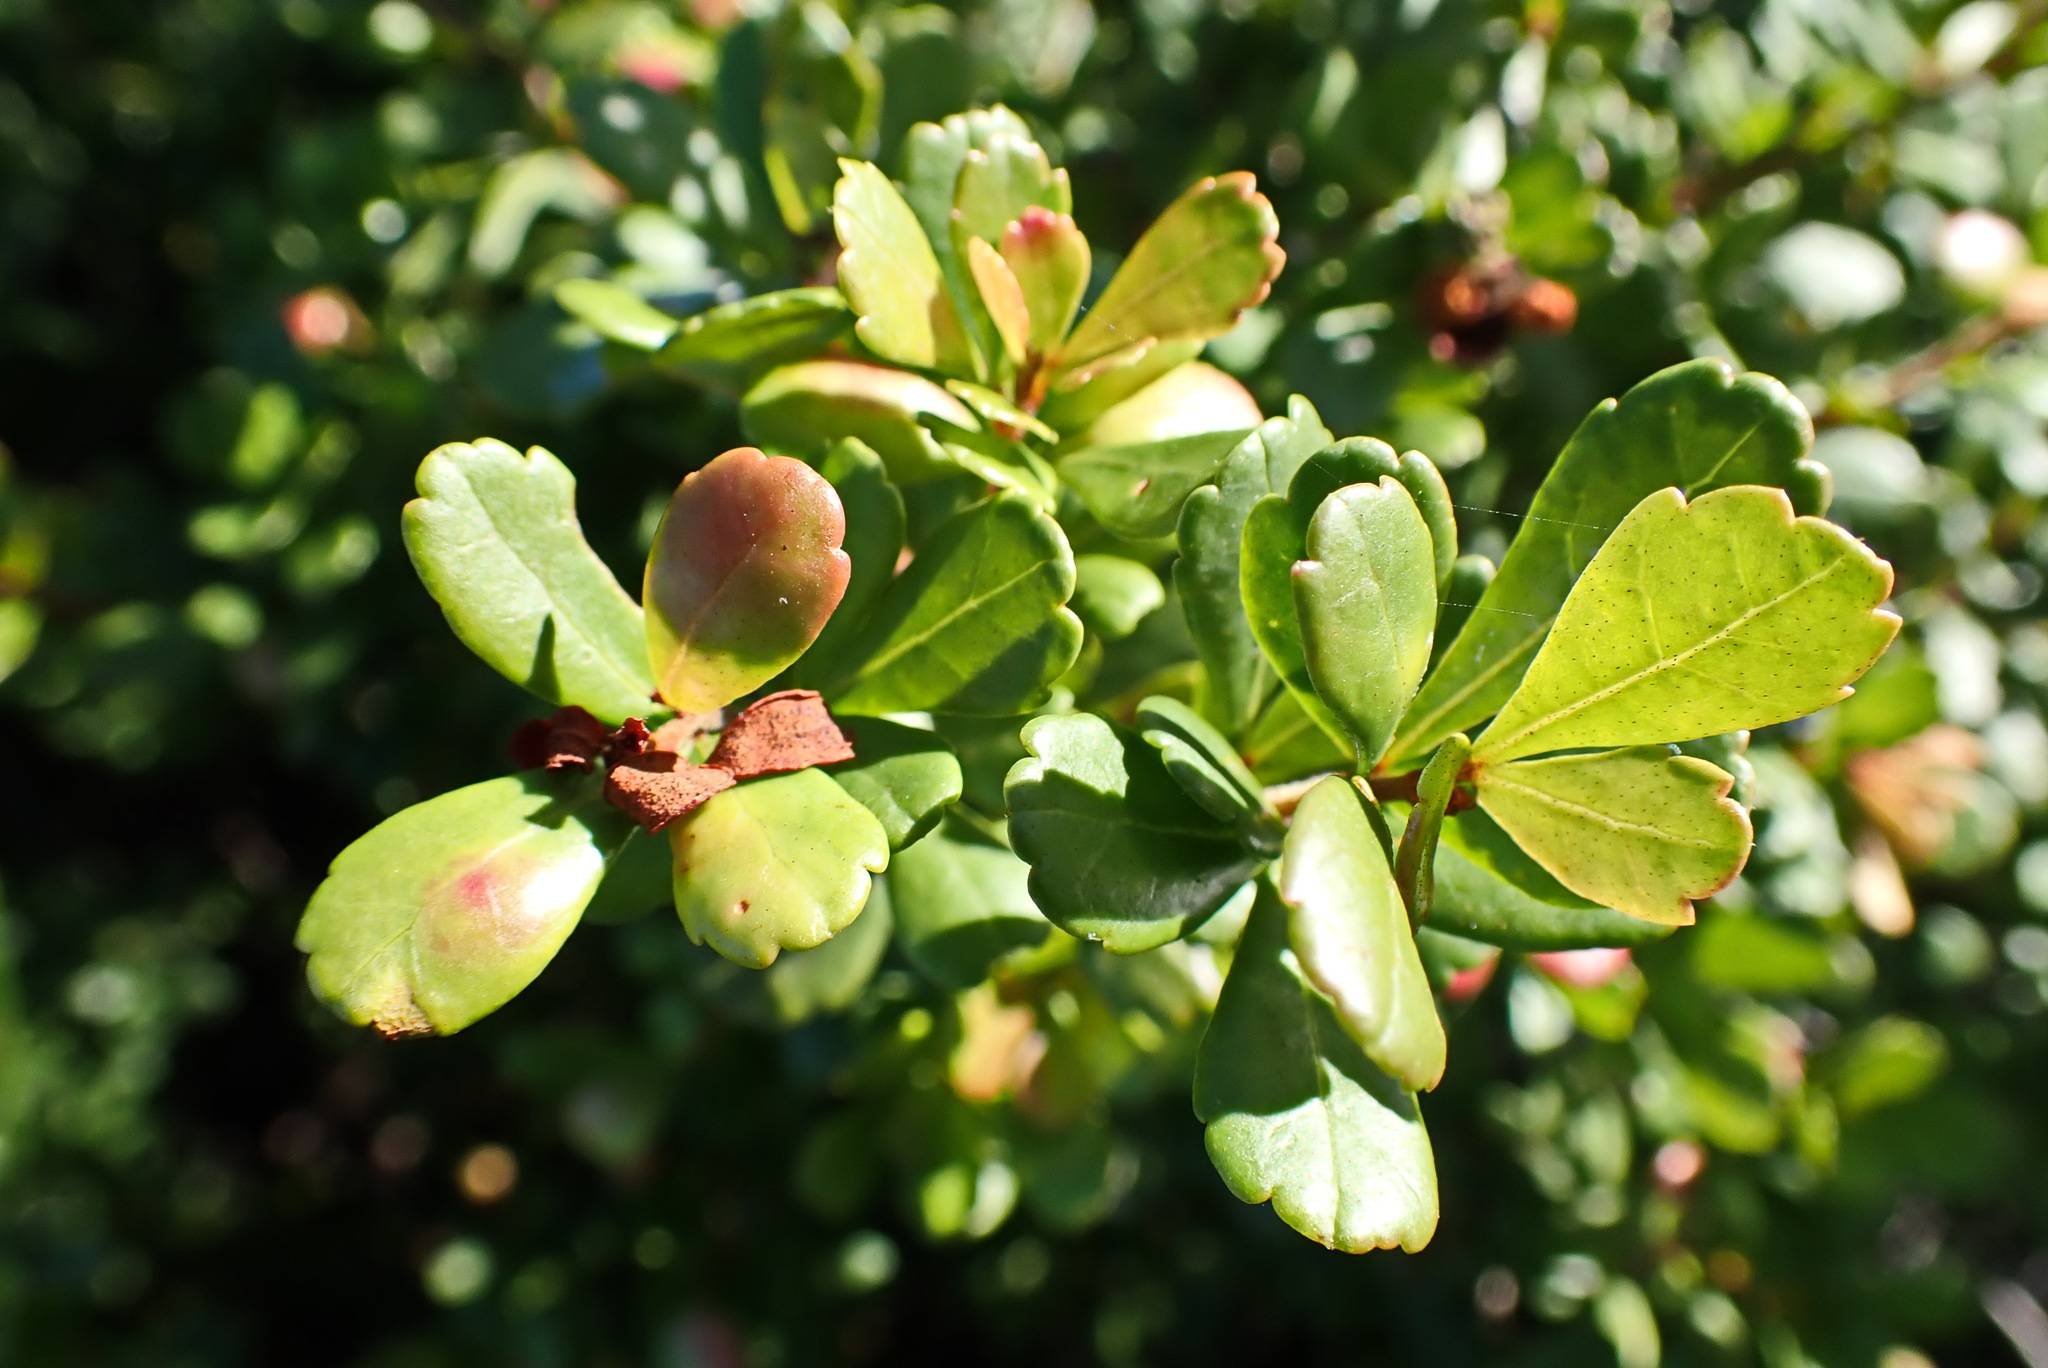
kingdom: Plantae
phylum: Tracheophyta
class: Magnoliopsida
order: Sapindales
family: Anacardiaceae
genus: Searsia
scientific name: Searsia crenata
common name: Crowberry
